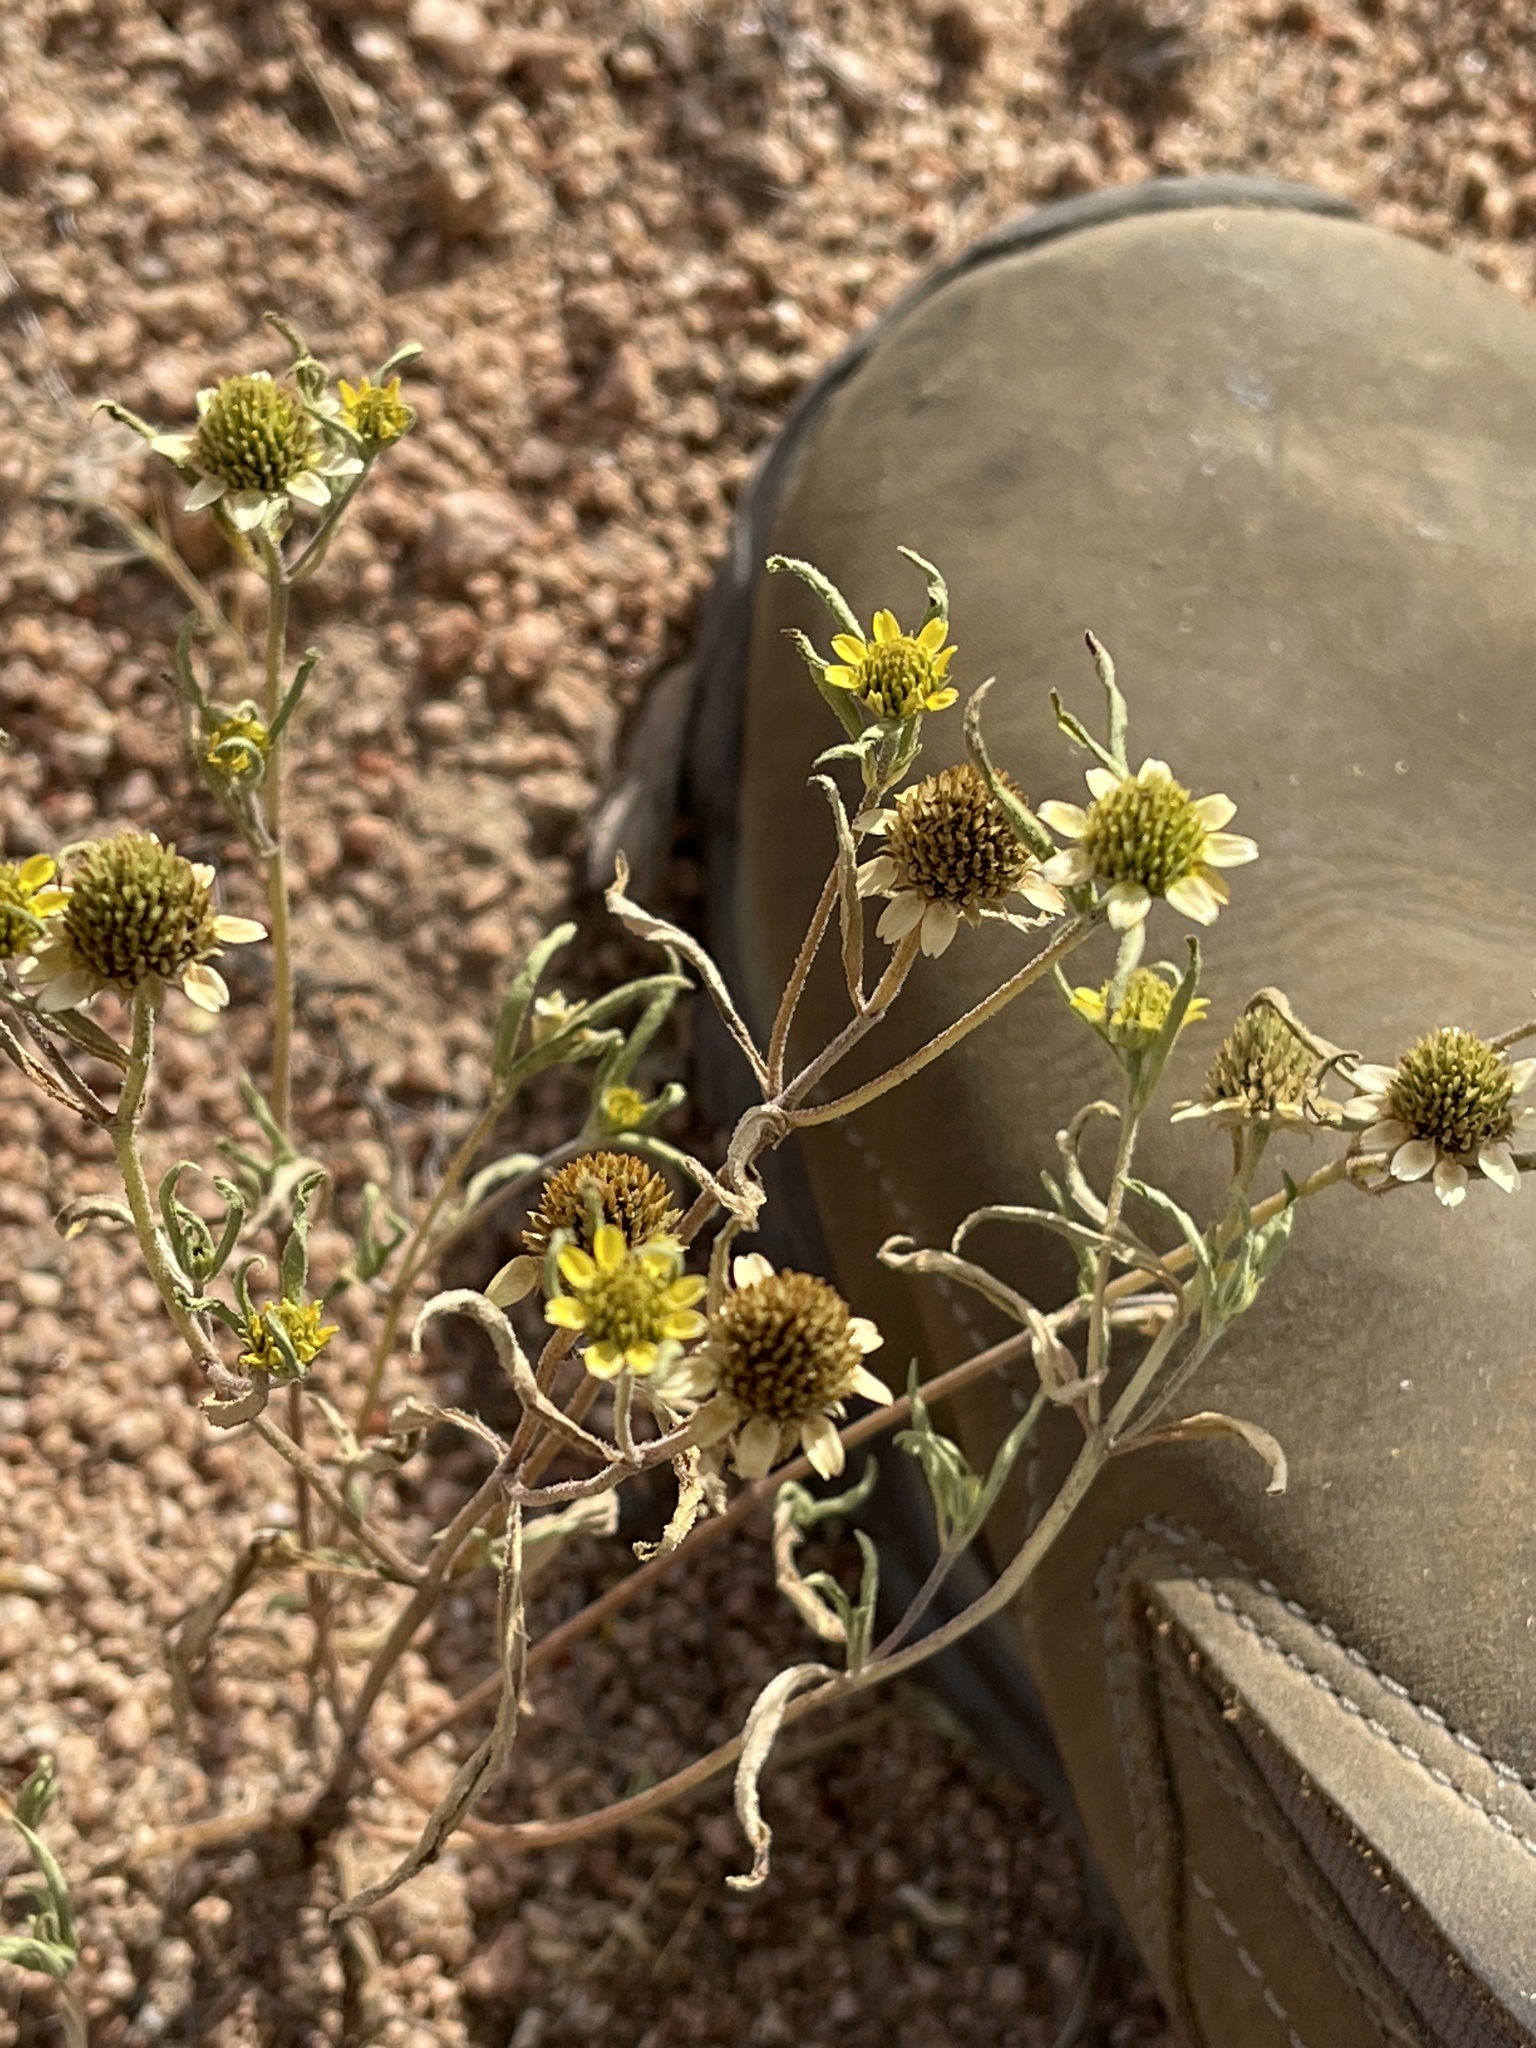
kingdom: Plantae
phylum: Tracheophyta
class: Magnoliopsida
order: Asterales
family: Asteraceae
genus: Sanvitalia
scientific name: Sanvitalia abertii
